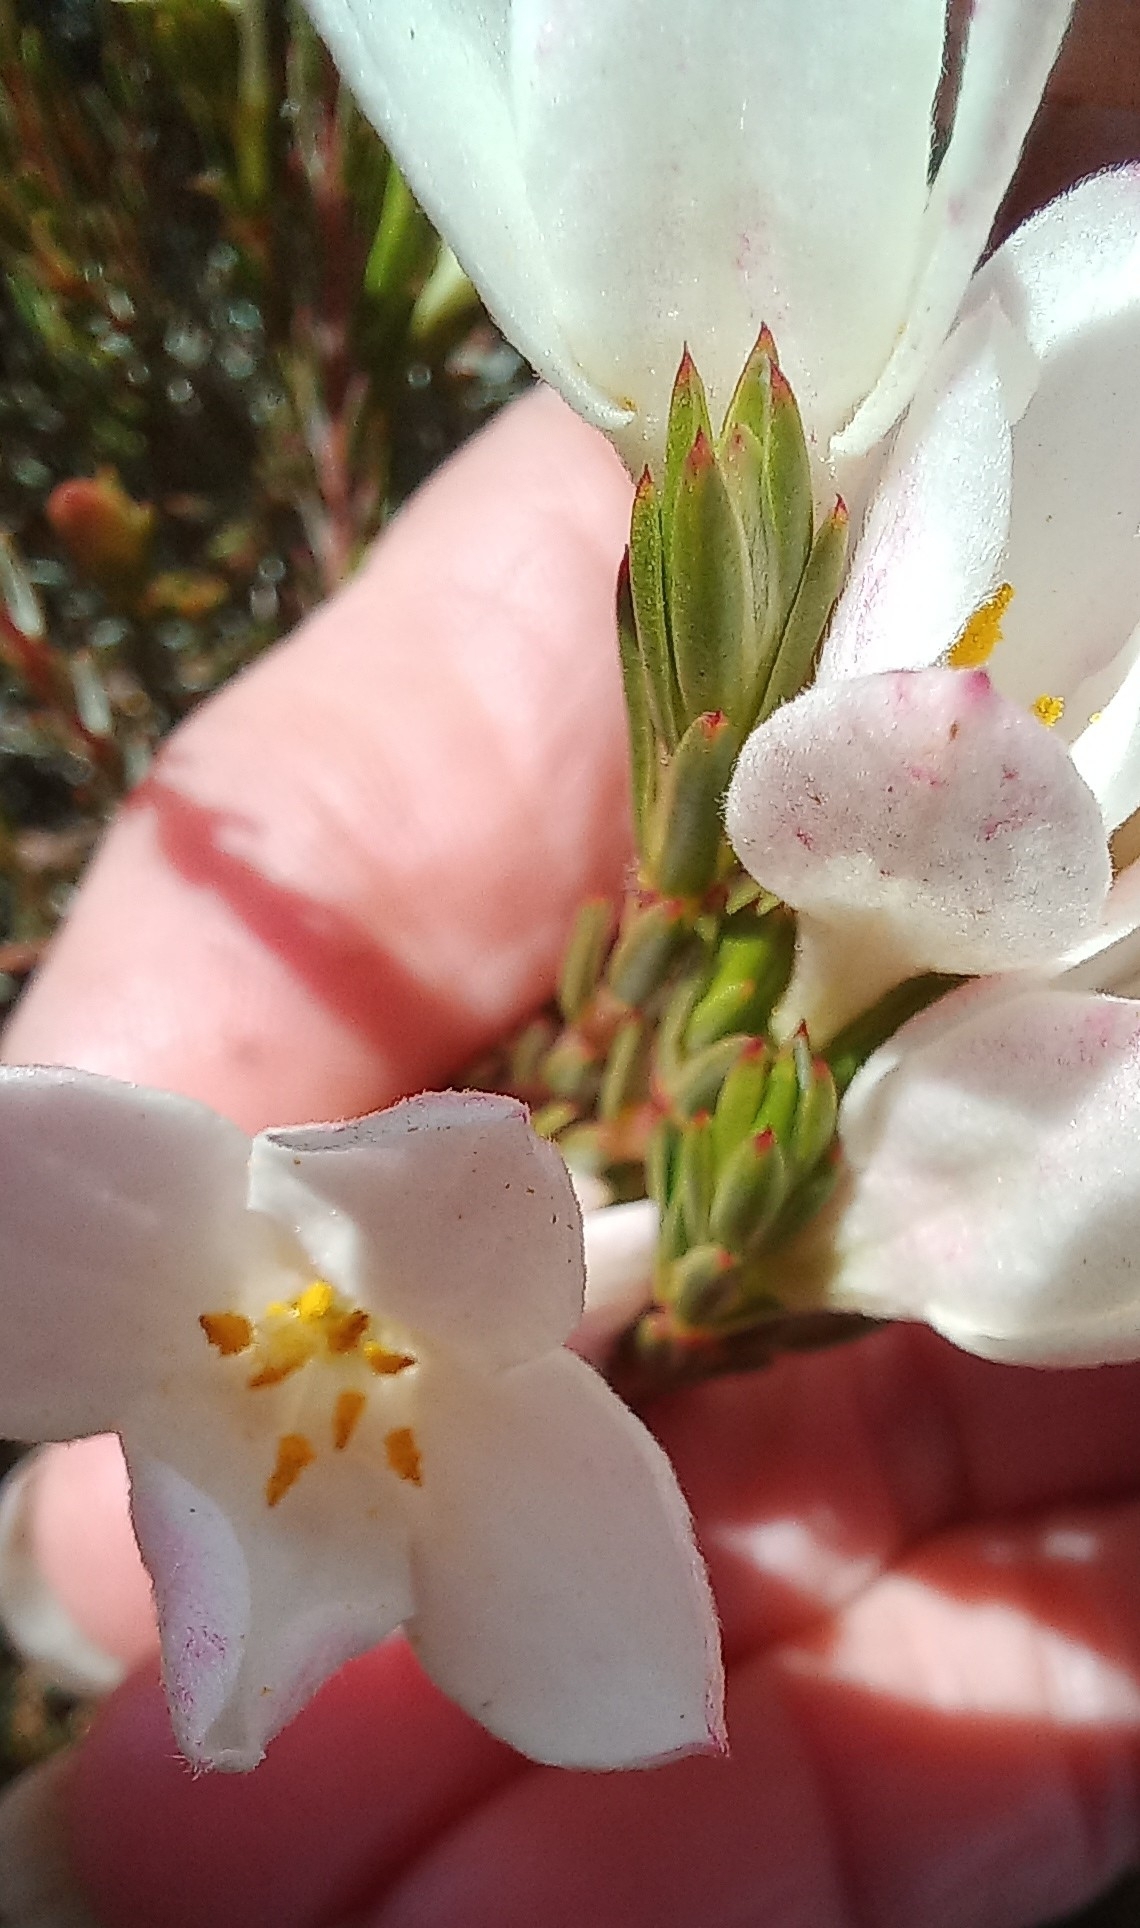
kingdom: Plantae
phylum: Tracheophyta
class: Magnoliopsida
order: Malvales
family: Thymelaeaceae
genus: Lachnaea
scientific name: Lachnaea grandiflora
